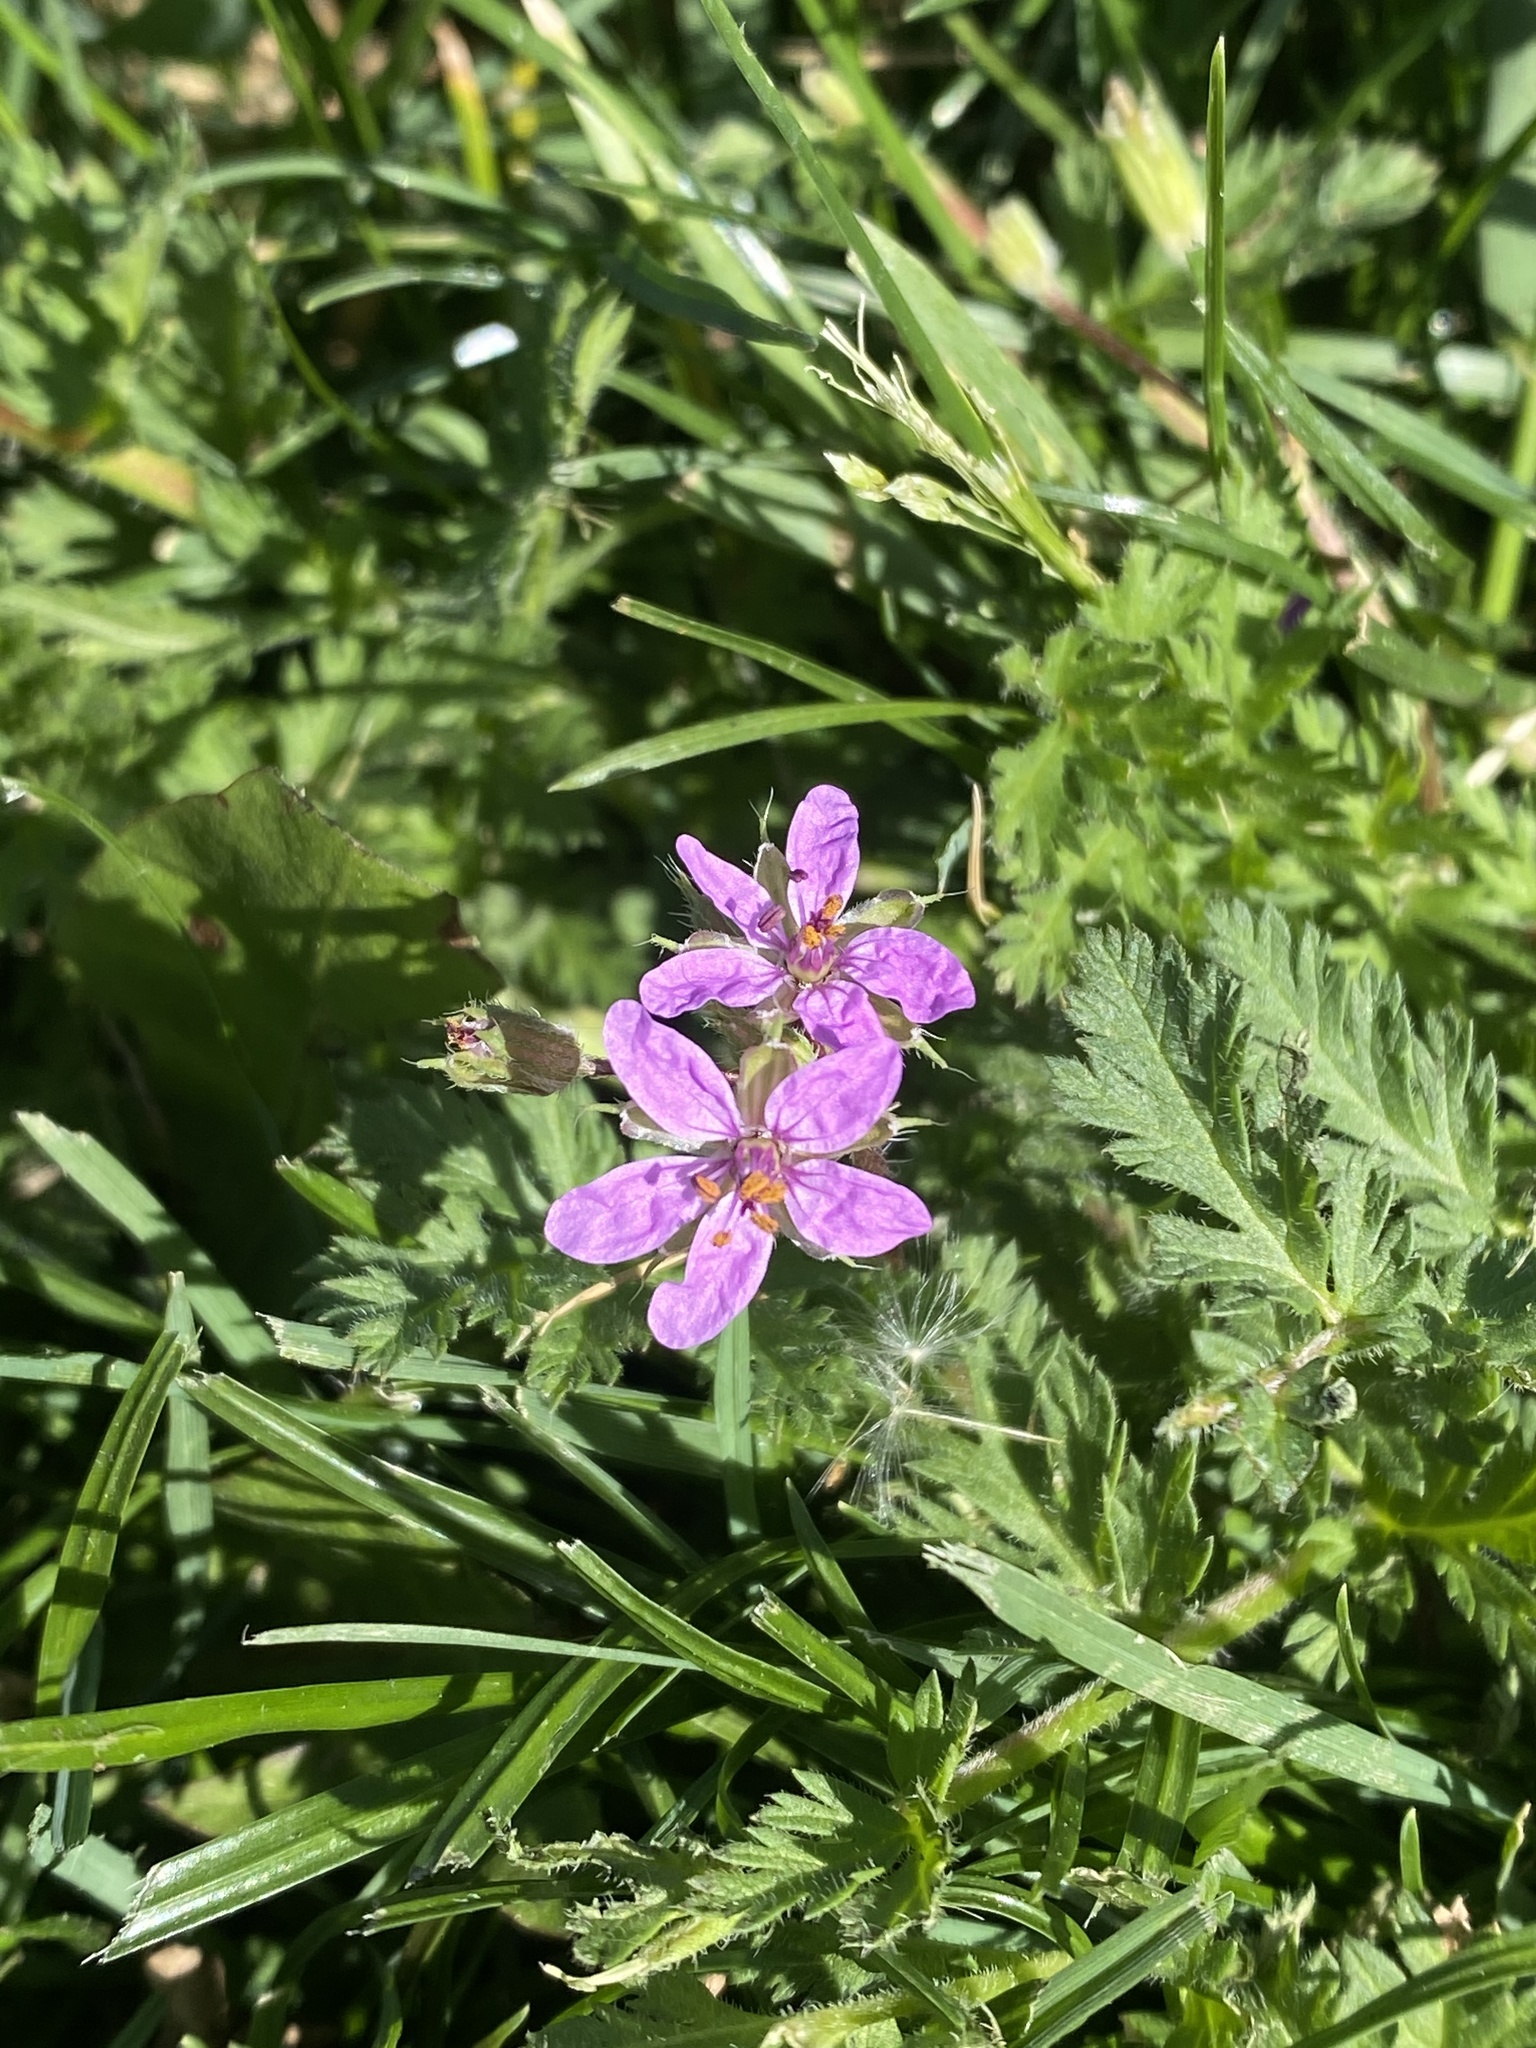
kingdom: Plantae
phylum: Tracheophyta
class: Magnoliopsida
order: Geraniales
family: Geraniaceae
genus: Erodium
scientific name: Erodium cicutarium
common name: Common stork's-bill
